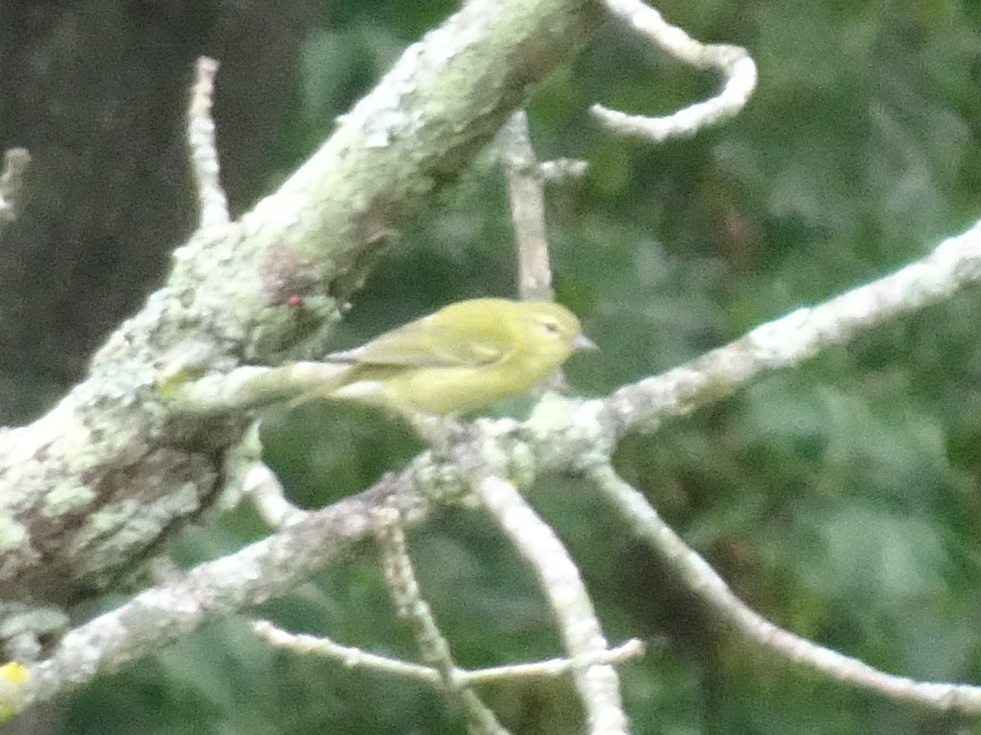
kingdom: Animalia
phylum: Chordata
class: Aves
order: Passeriformes
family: Parulidae
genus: Leiothlypis
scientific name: Leiothlypis peregrina
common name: Tennessee warbler
